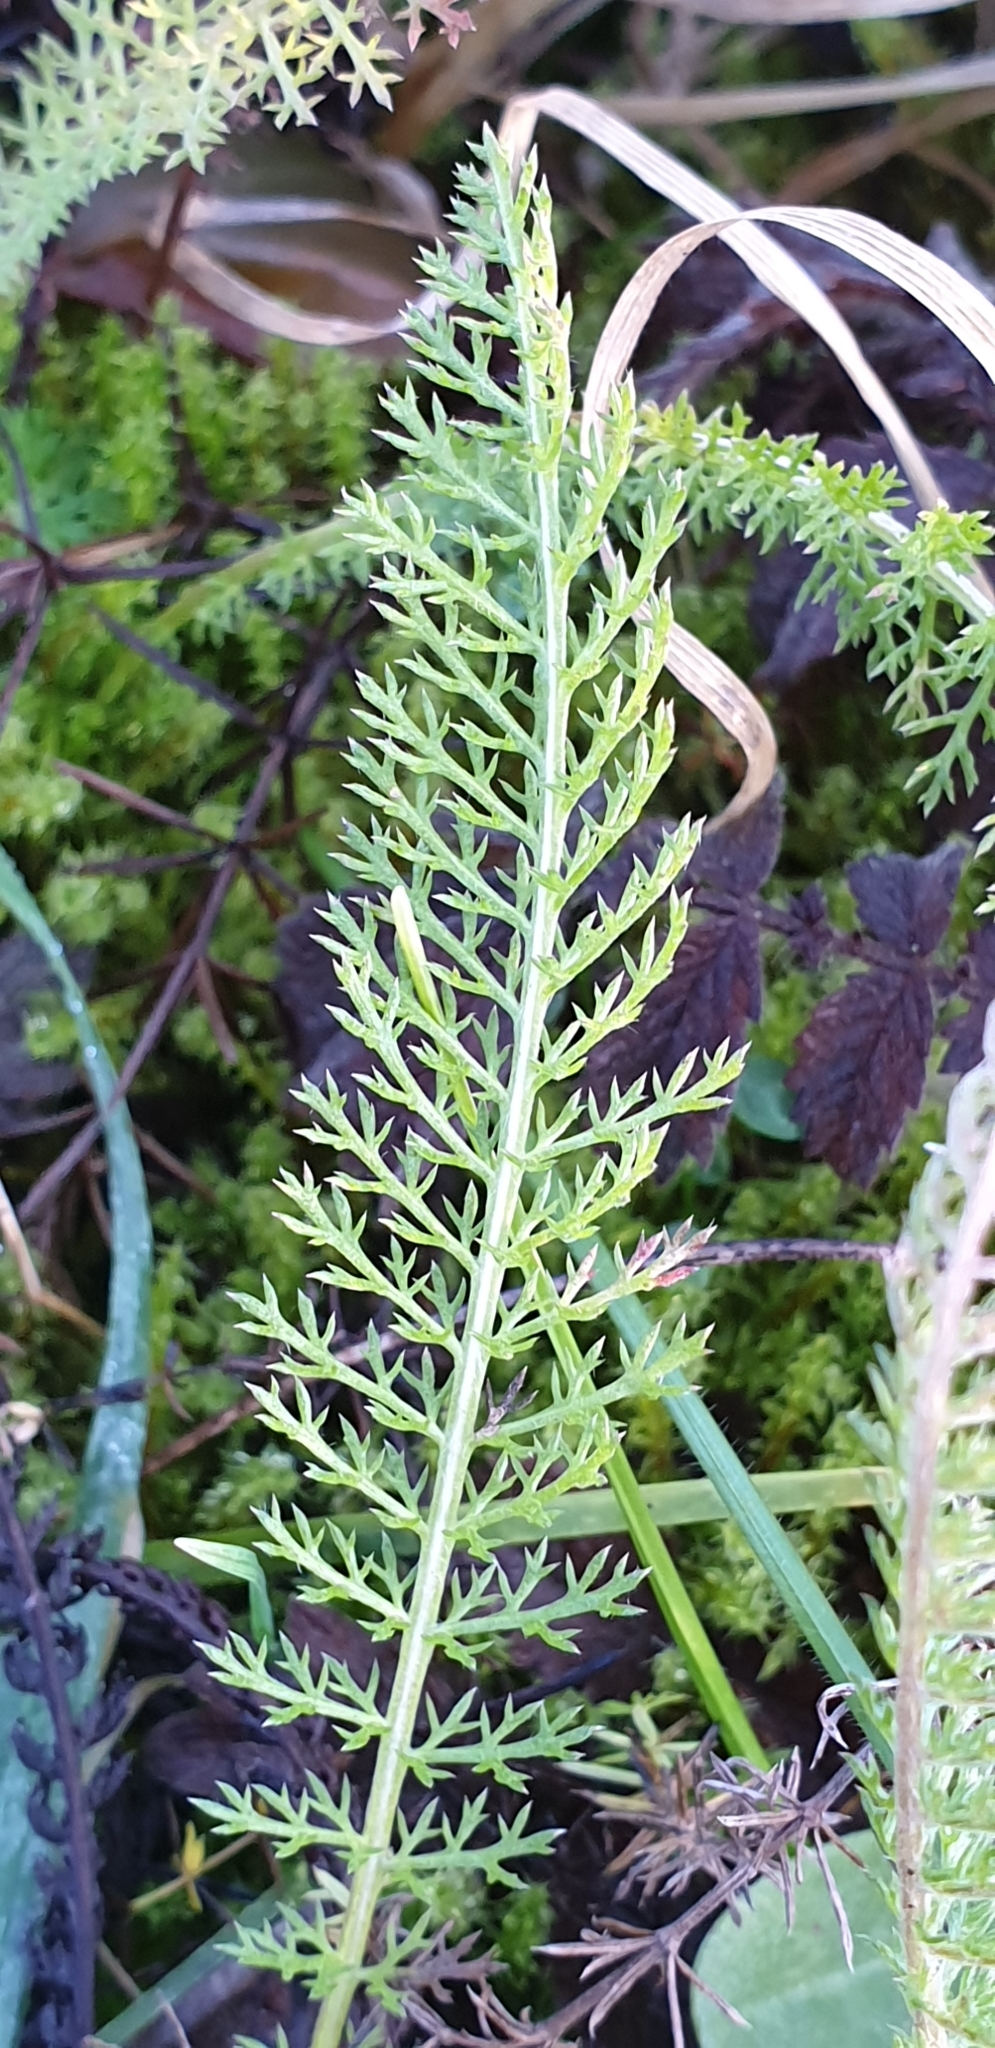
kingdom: Plantae
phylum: Tracheophyta
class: Magnoliopsida
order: Asterales
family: Asteraceae
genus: Achillea
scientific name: Achillea millefolium
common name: Yarrow
